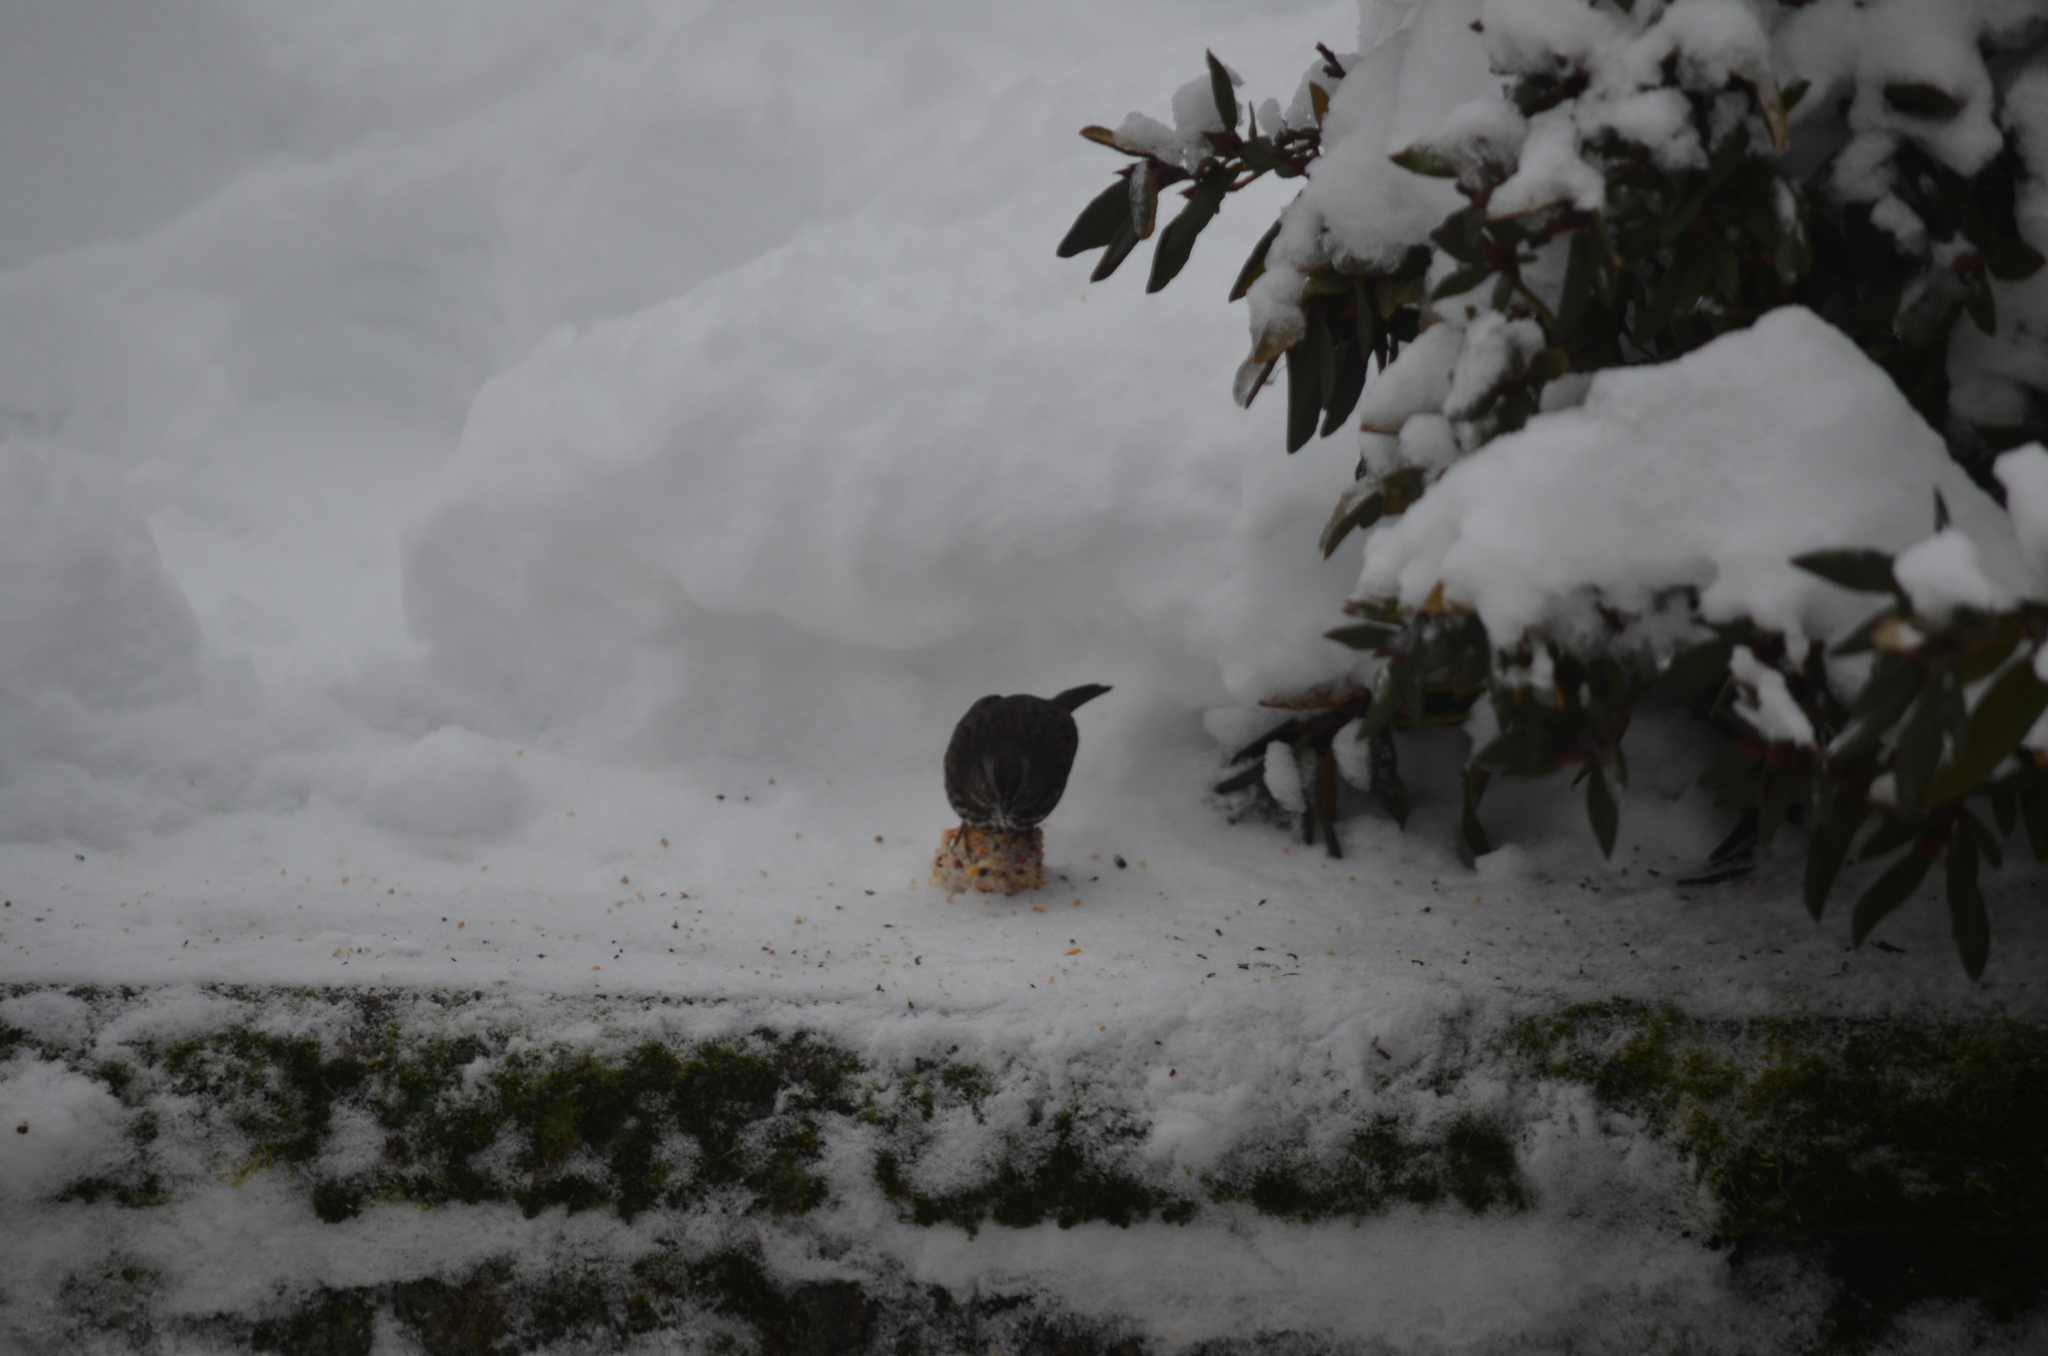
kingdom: Animalia
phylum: Chordata
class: Aves
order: Passeriformes
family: Passerellidae
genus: Melospiza
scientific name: Melospiza melodia
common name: Song sparrow
